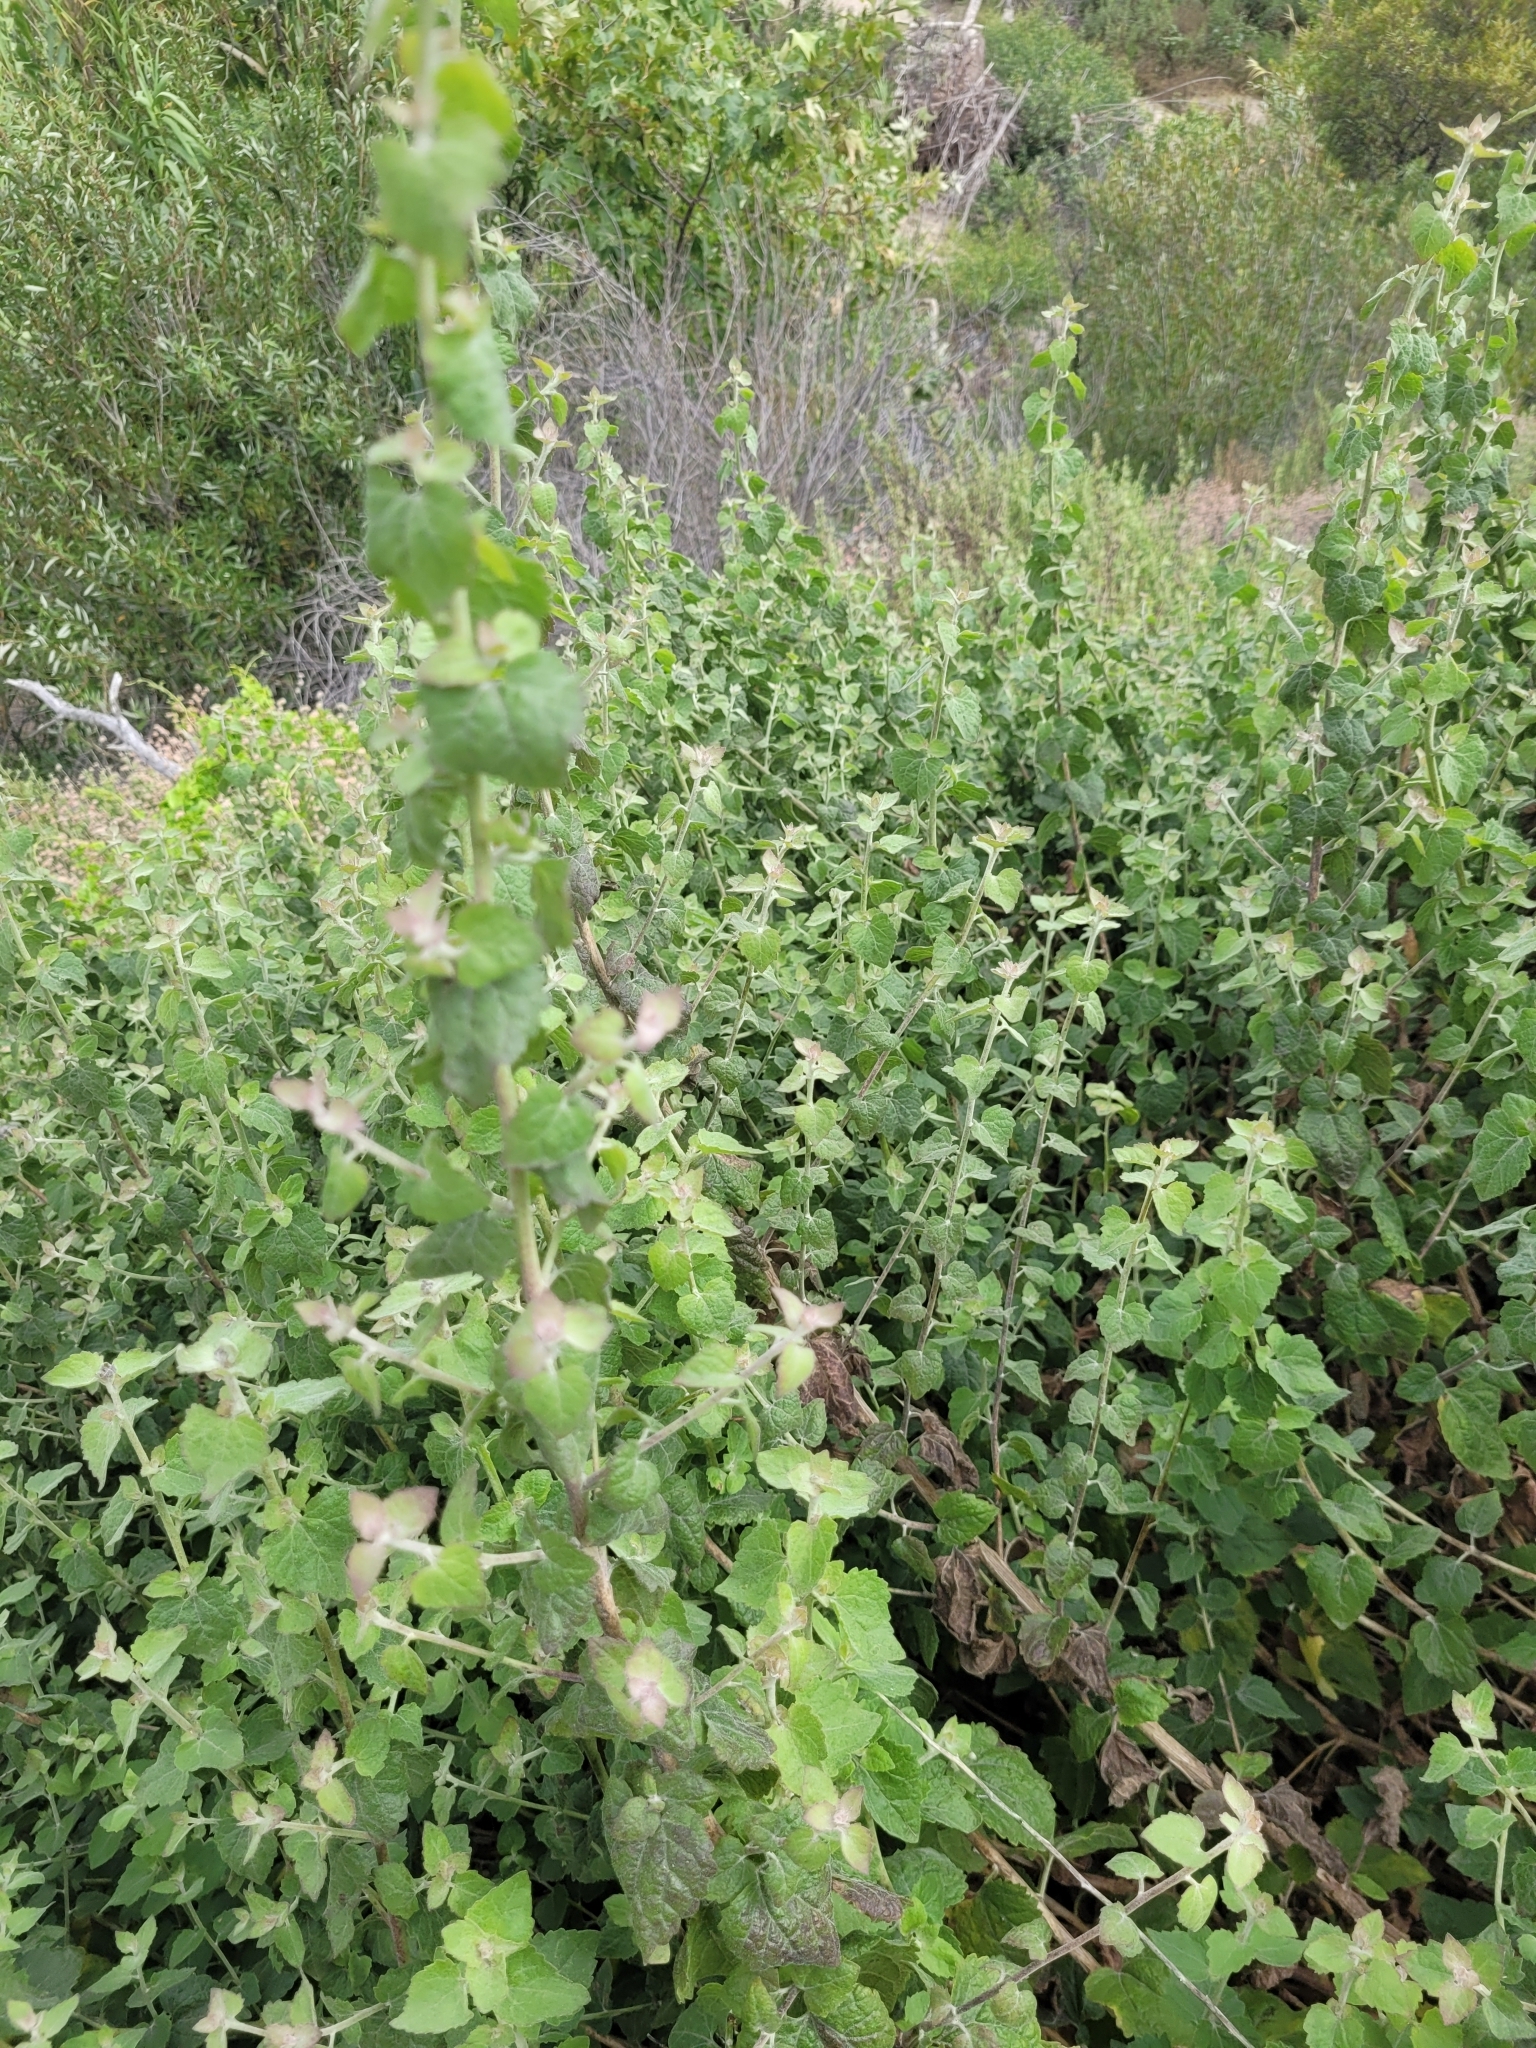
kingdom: Plantae
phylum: Tracheophyta
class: Magnoliopsida
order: Asterales
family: Asteraceae
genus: Brickellia
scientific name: Brickellia californica
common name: California brickellbush
